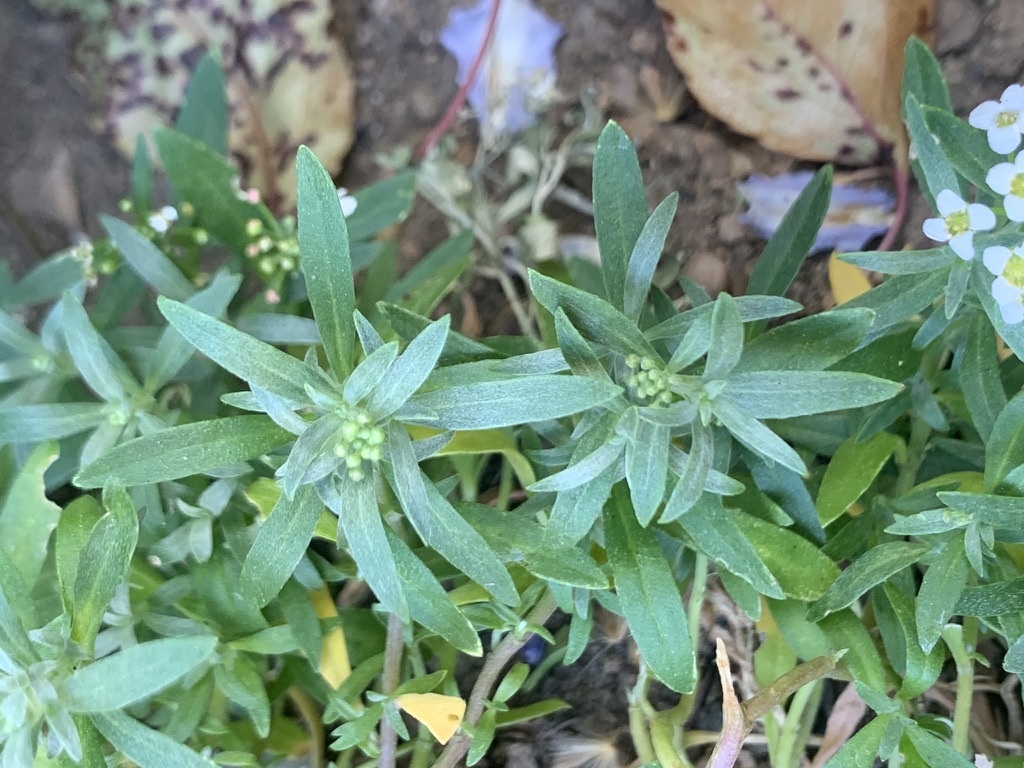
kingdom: Plantae
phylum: Tracheophyta
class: Magnoliopsida
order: Brassicales
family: Brassicaceae
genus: Lobularia
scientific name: Lobularia maritima
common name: Sweet alison
